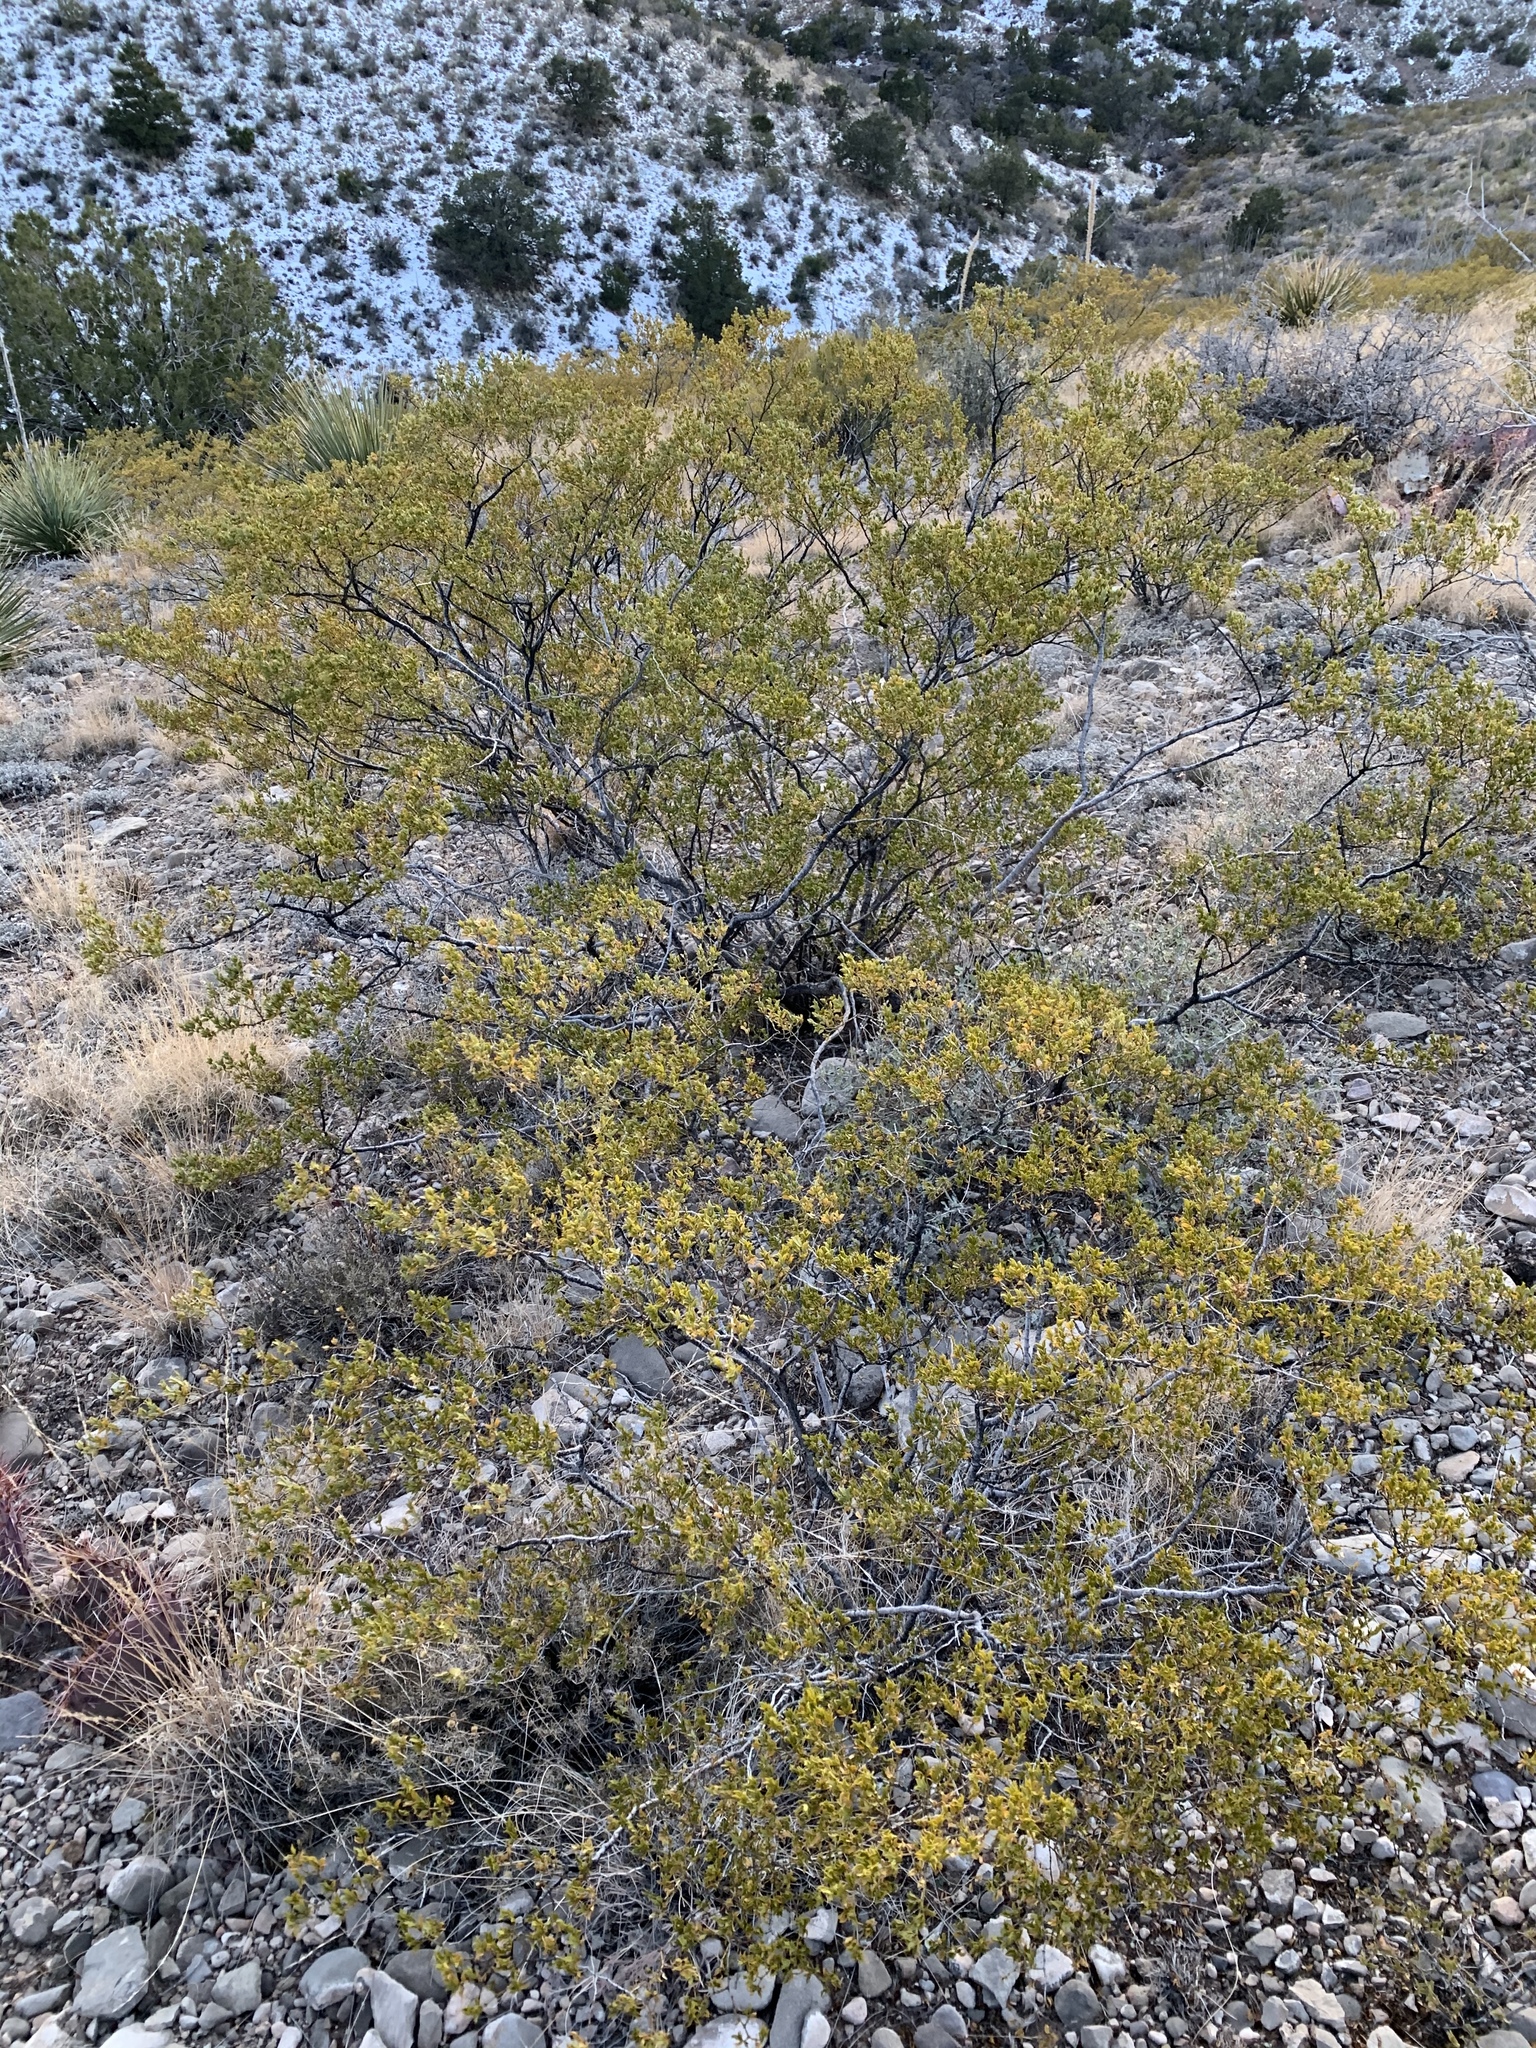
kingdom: Plantae
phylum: Tracheophyta
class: Magnoliopsida
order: Zygophyllales
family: Zygophyllaceae
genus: Larrea
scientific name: Larrea tridentata
